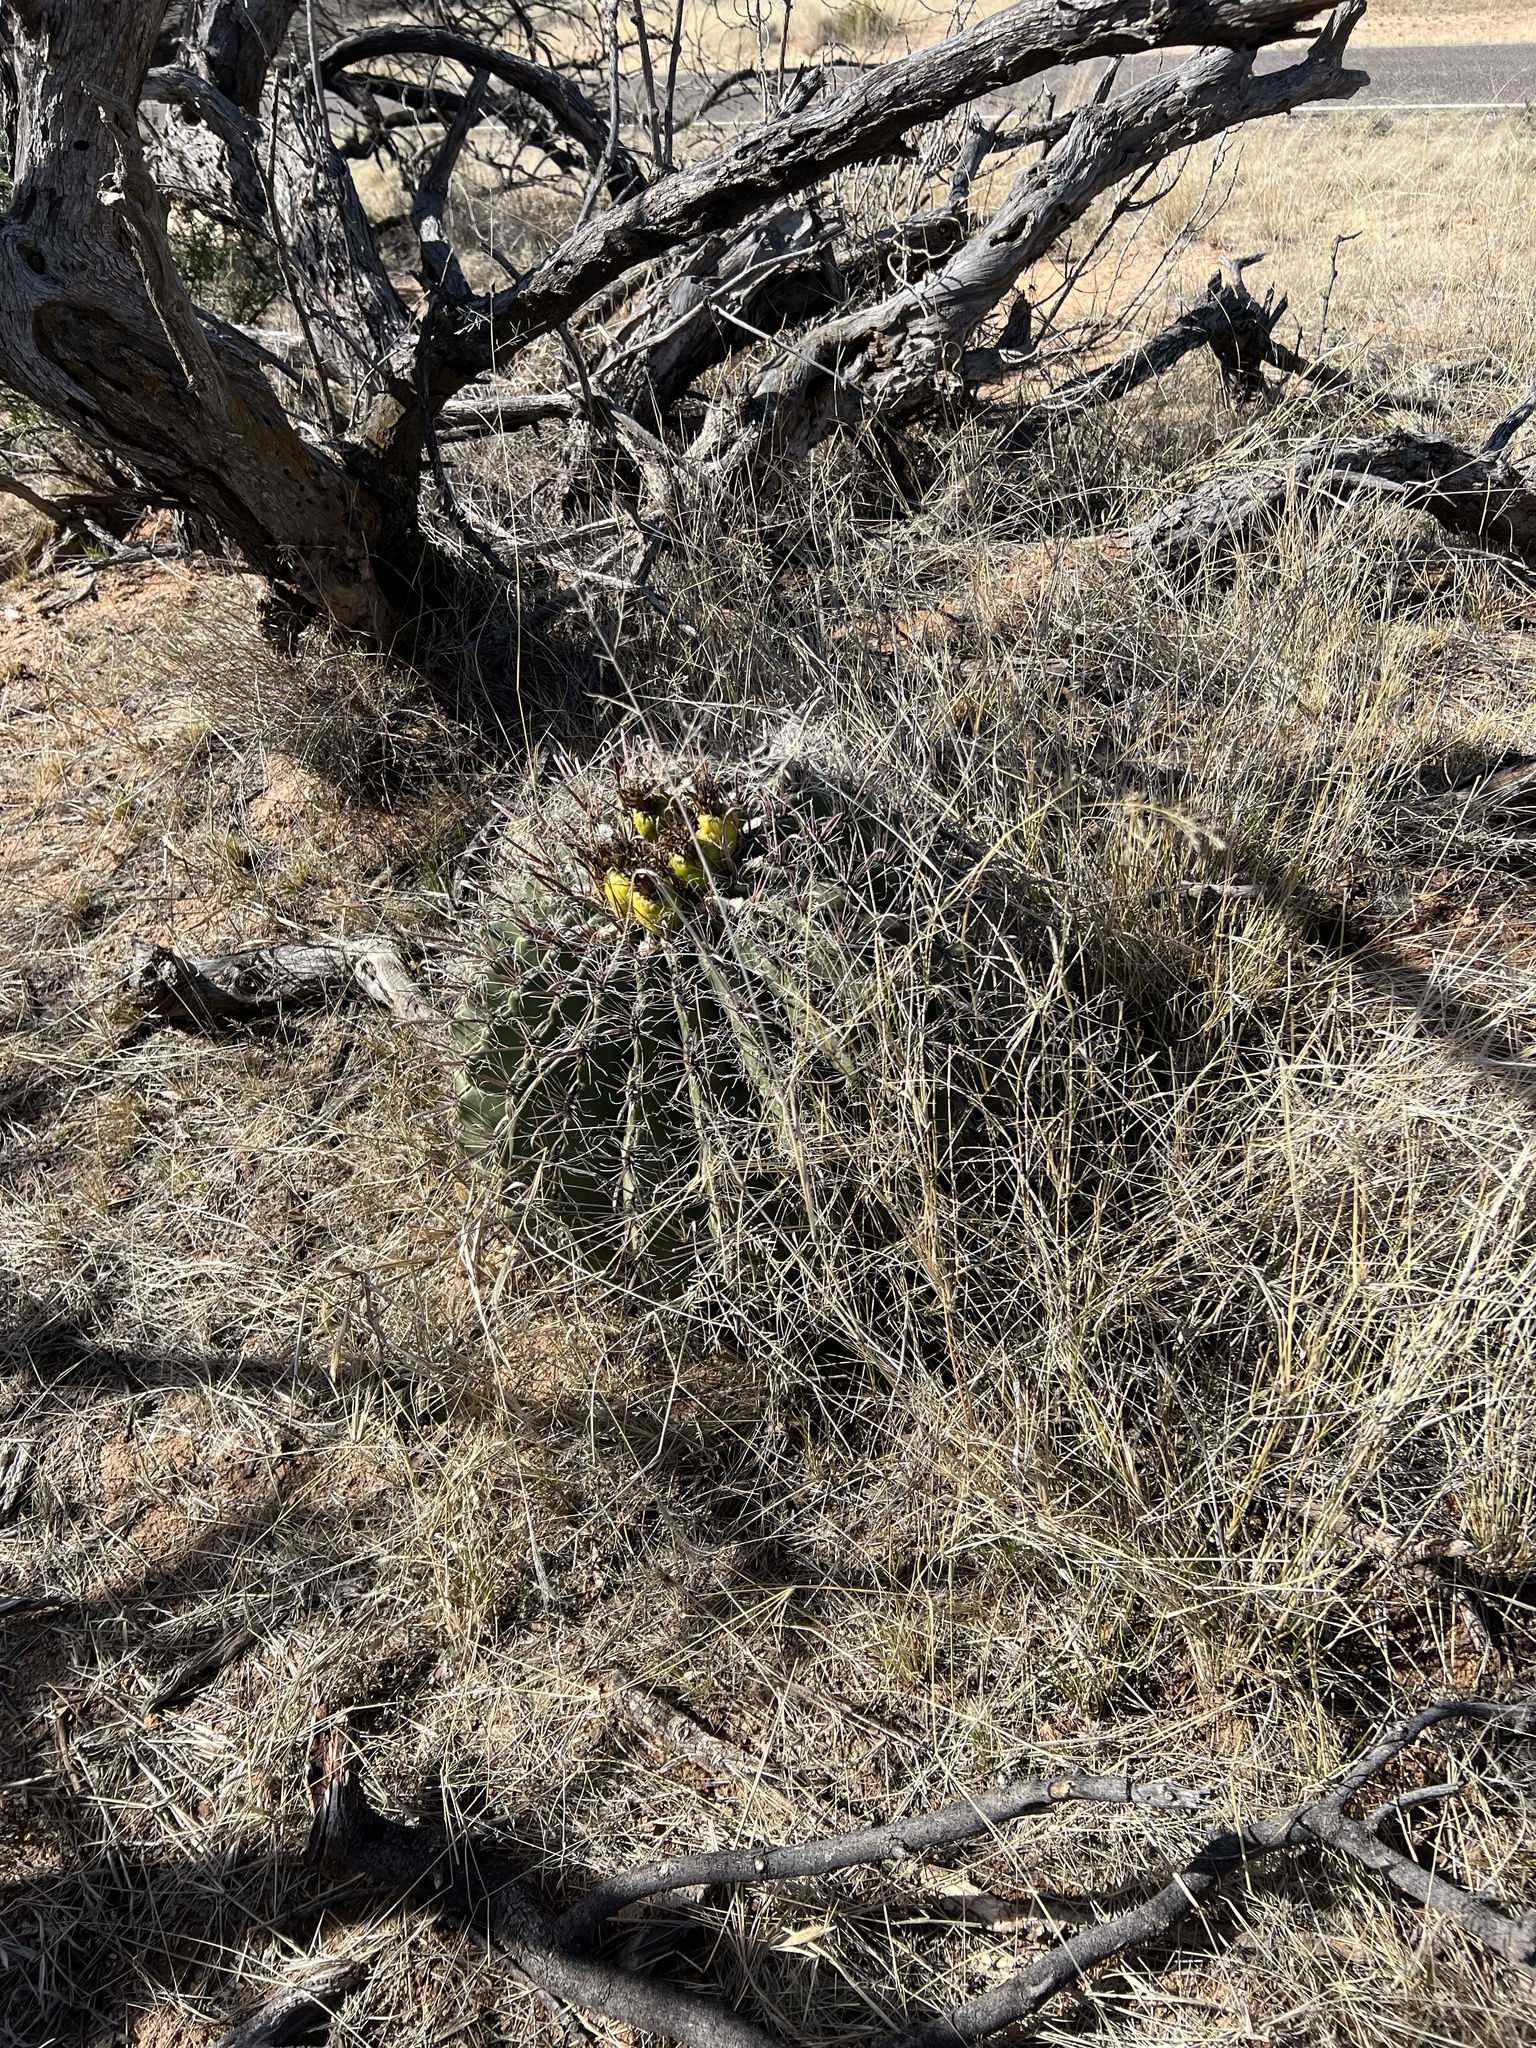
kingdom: Plantae
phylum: Tracheophyta
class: Magnoliopsida
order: Caryophyllales
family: Cactaceae
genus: Ferocactus
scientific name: Ferocactus wislizeni
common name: Candy barrel cactus
